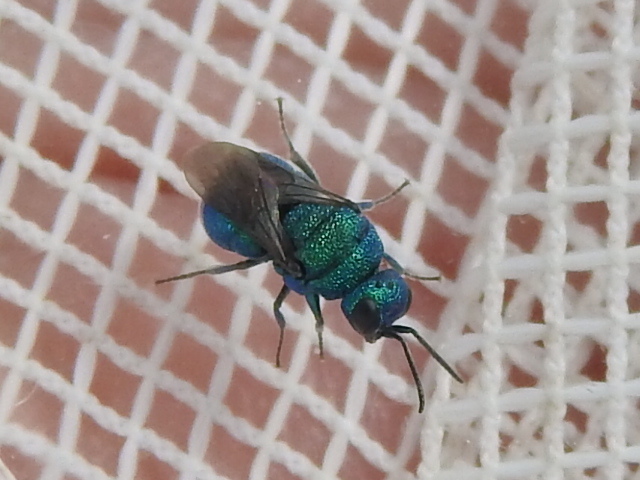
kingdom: Animalia
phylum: Arthropoda
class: Insecta
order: Hymenoptera
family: Chrysididae
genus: Holopyga
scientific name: Holopyga
